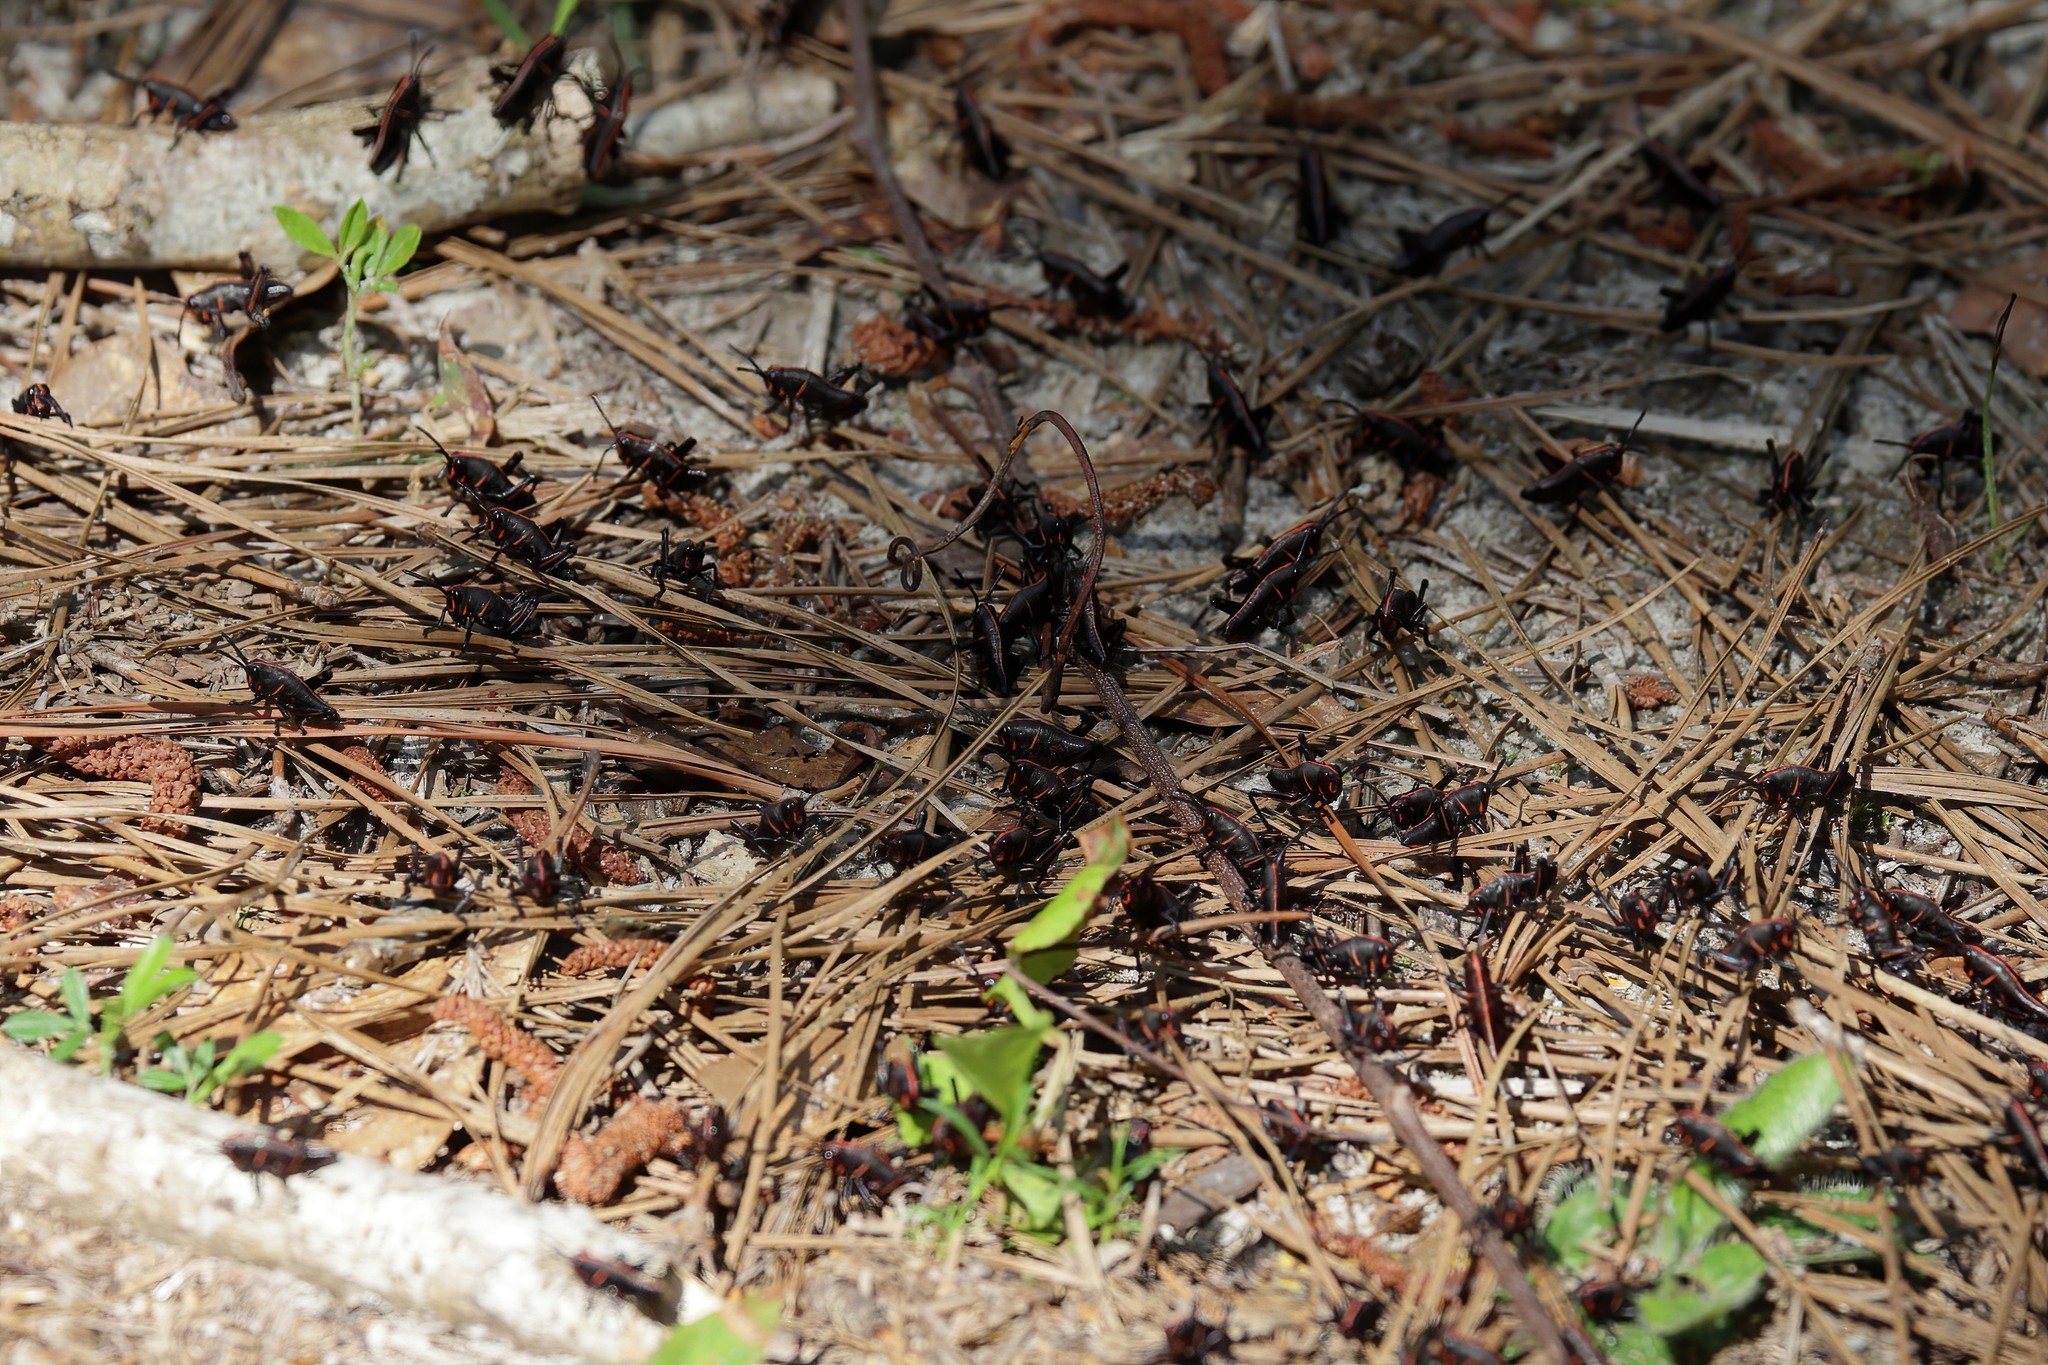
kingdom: Animalia
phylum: Arthropoda
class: Insecta
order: Orthoptera
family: Romaleidae
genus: Romalea
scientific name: Romalea microptera
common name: Eastern lubber grasshopper
